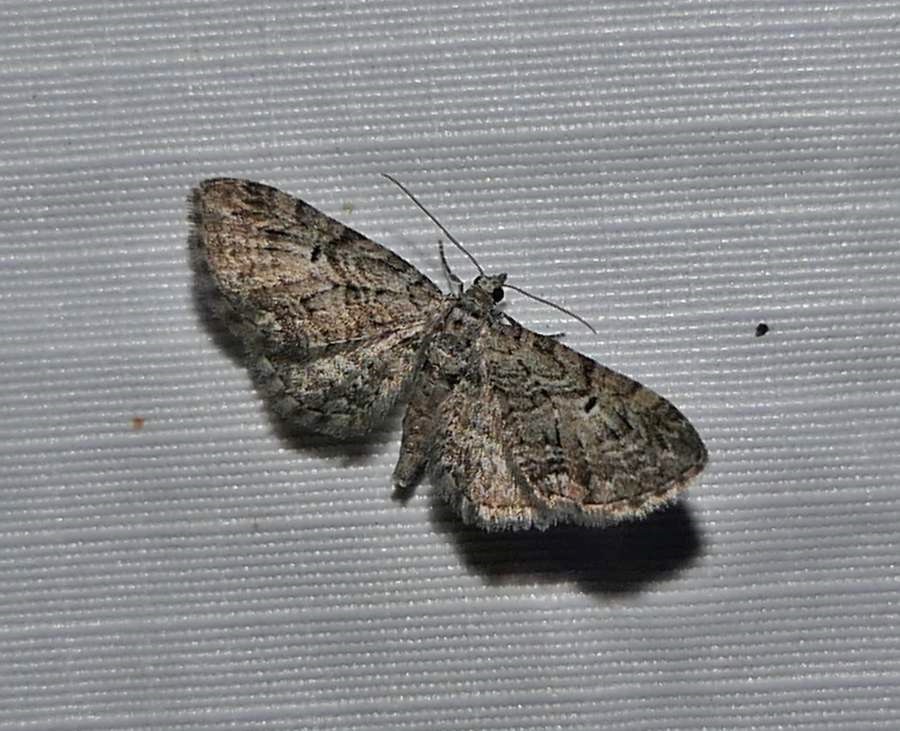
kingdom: Animalia
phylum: Arthropoda
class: Insecta
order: Lepidoptera
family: Geometridae
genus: Eupithecia
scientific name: Eupithecia interruptofasciata
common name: Juniper looper moth
